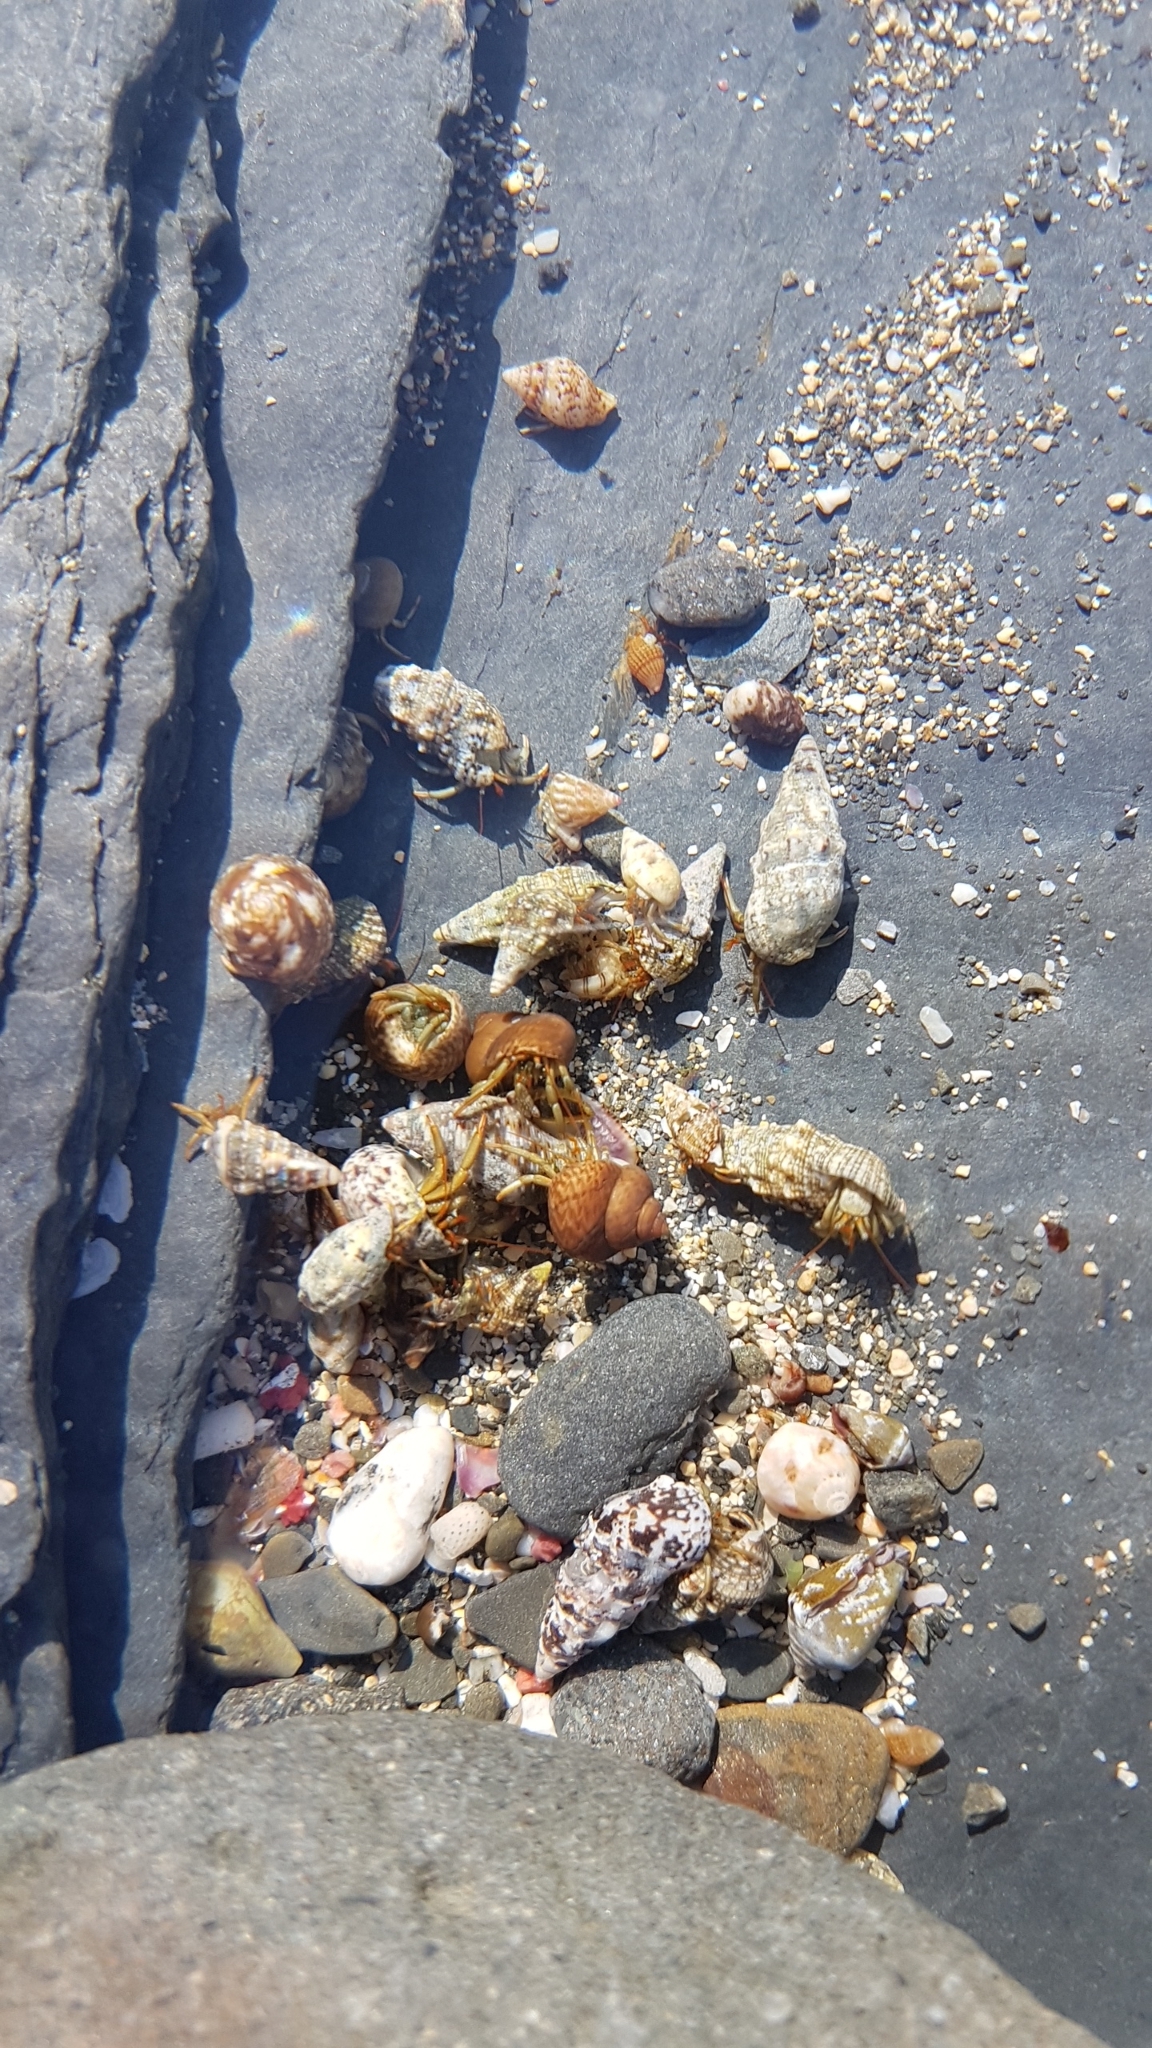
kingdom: Animalia
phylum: Arthropoda
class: Malacostraca
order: Decapoda
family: Diogenidae
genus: Clibanarius
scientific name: Clibanarius erythropus
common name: Hermit crab
